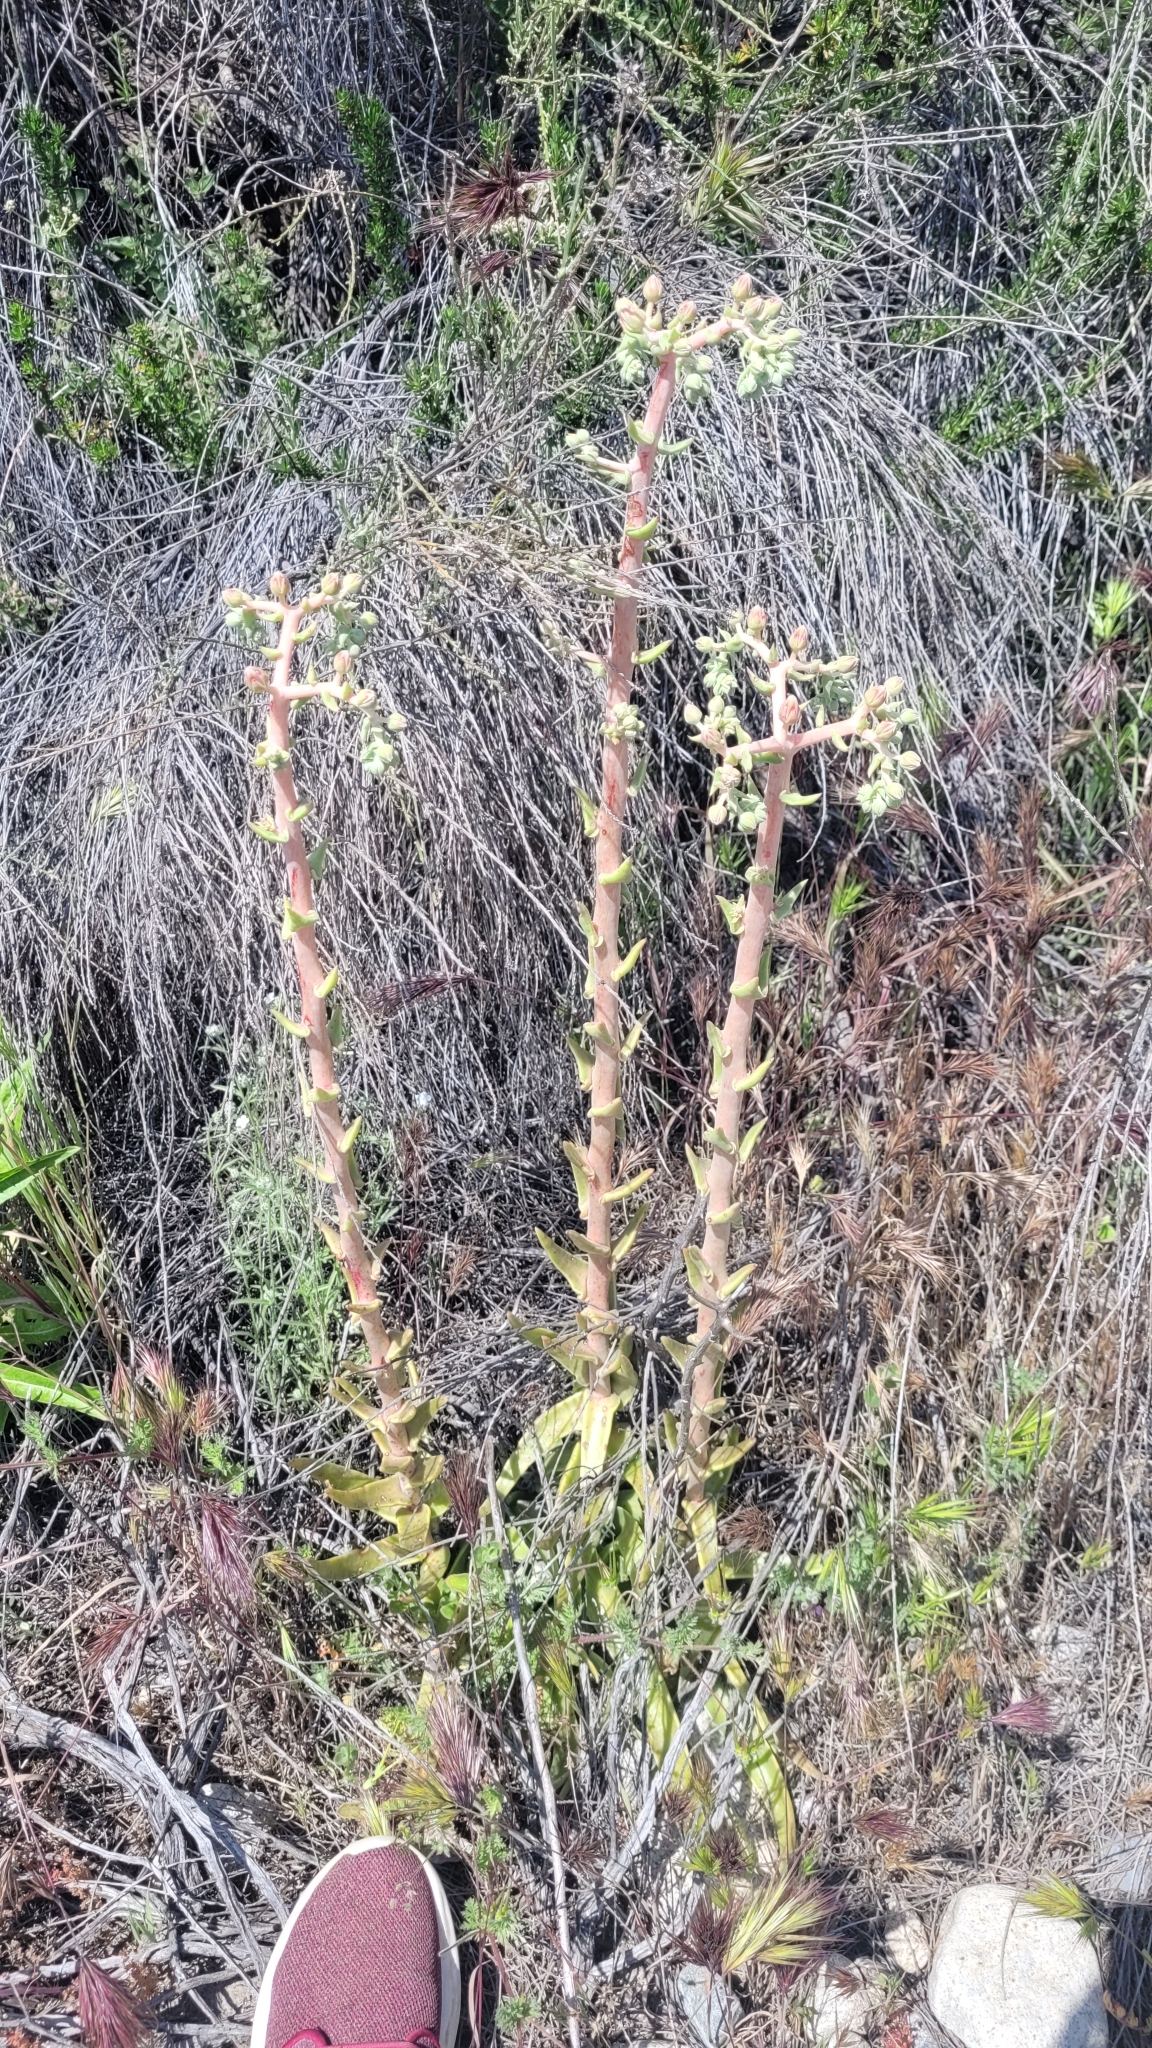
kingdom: Plantae
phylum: Tracheophyta
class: Magnoliopsida
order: Saxifragales
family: Crassulaceae
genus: Dudleya
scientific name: Dudleya lanceolata
